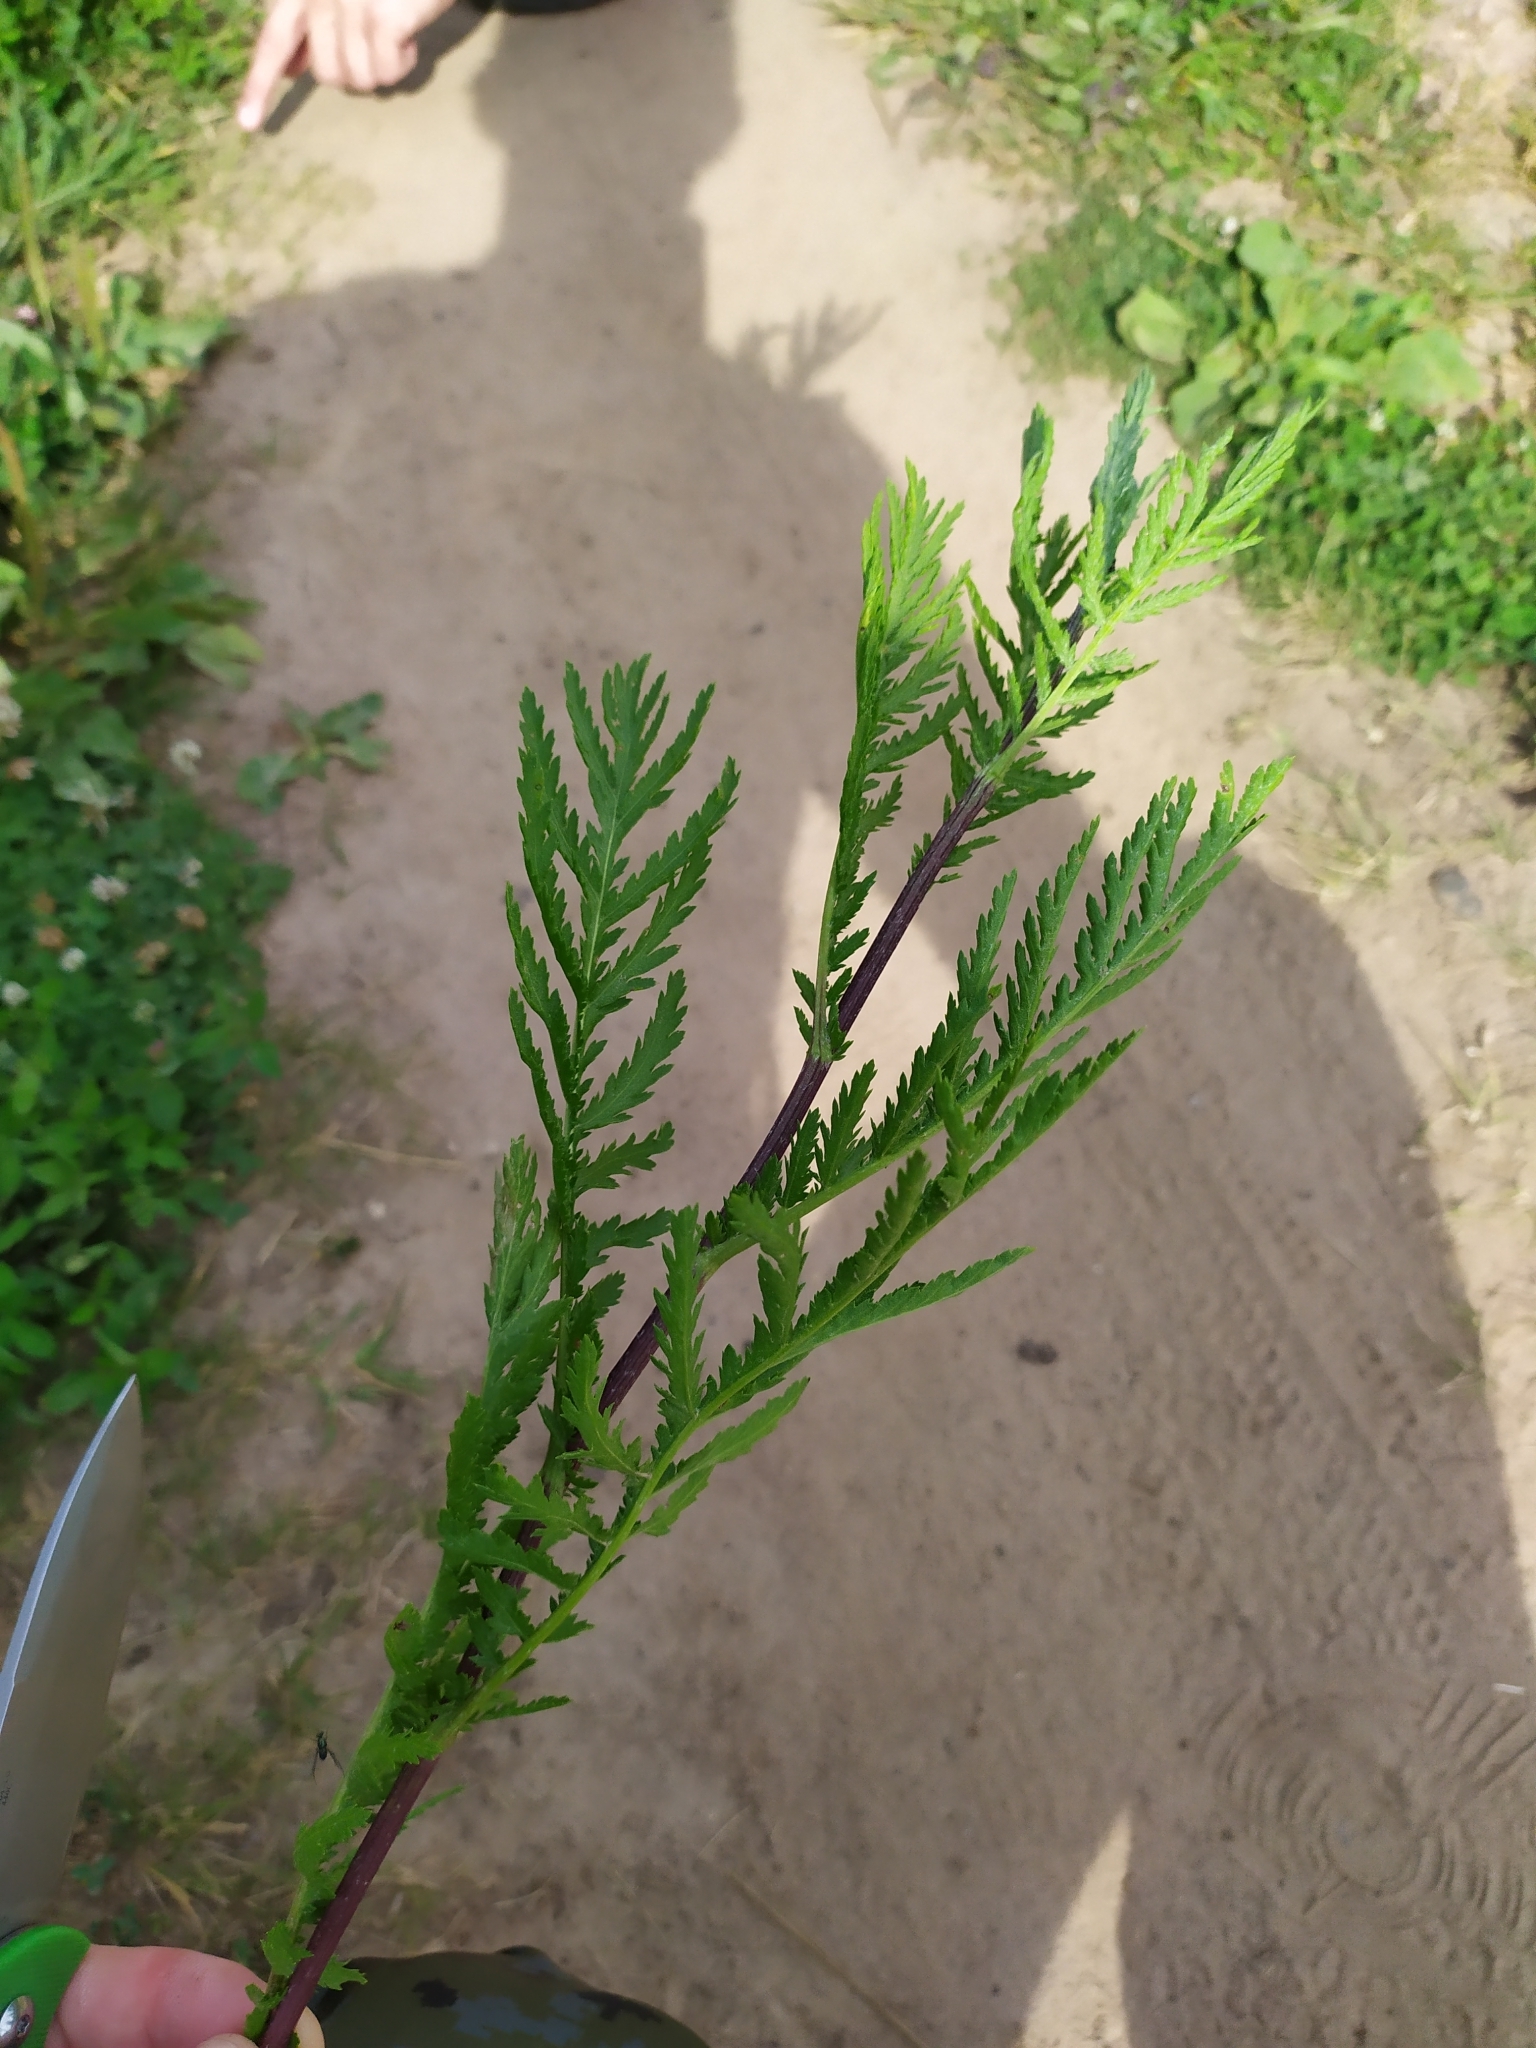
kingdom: Plantae
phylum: Tracheophyta
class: Magnoliopsida
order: Asterales
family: Asteraceae
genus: Tanacetum
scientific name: Tanacetum vulgare
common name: Common tansy
